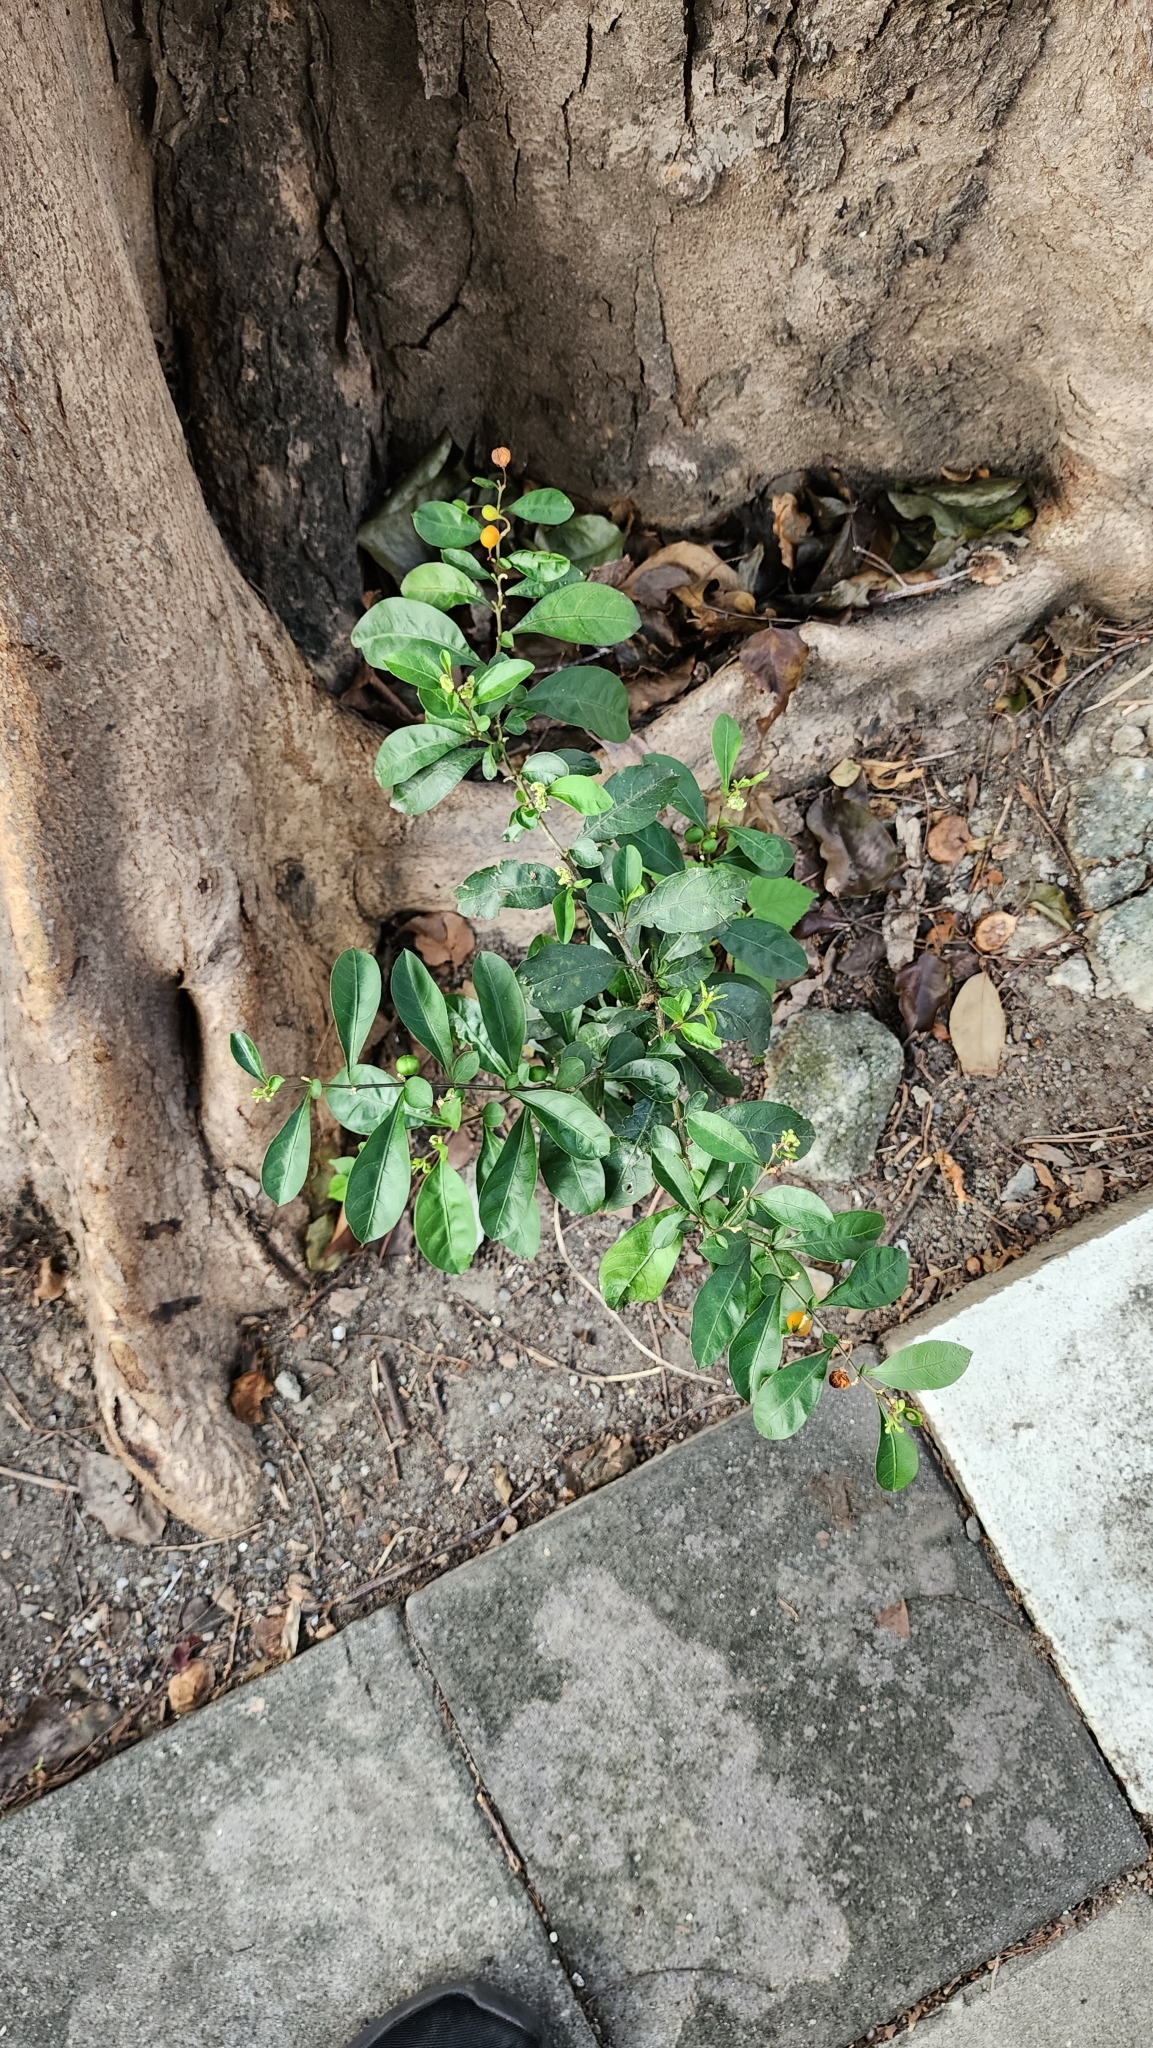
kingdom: Plantae
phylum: Tracheophyta
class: Magnoliopsida
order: Solanales
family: Solanaceae
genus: Solanum
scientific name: Solanum diphyllum
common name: Twoleaf nightshade
